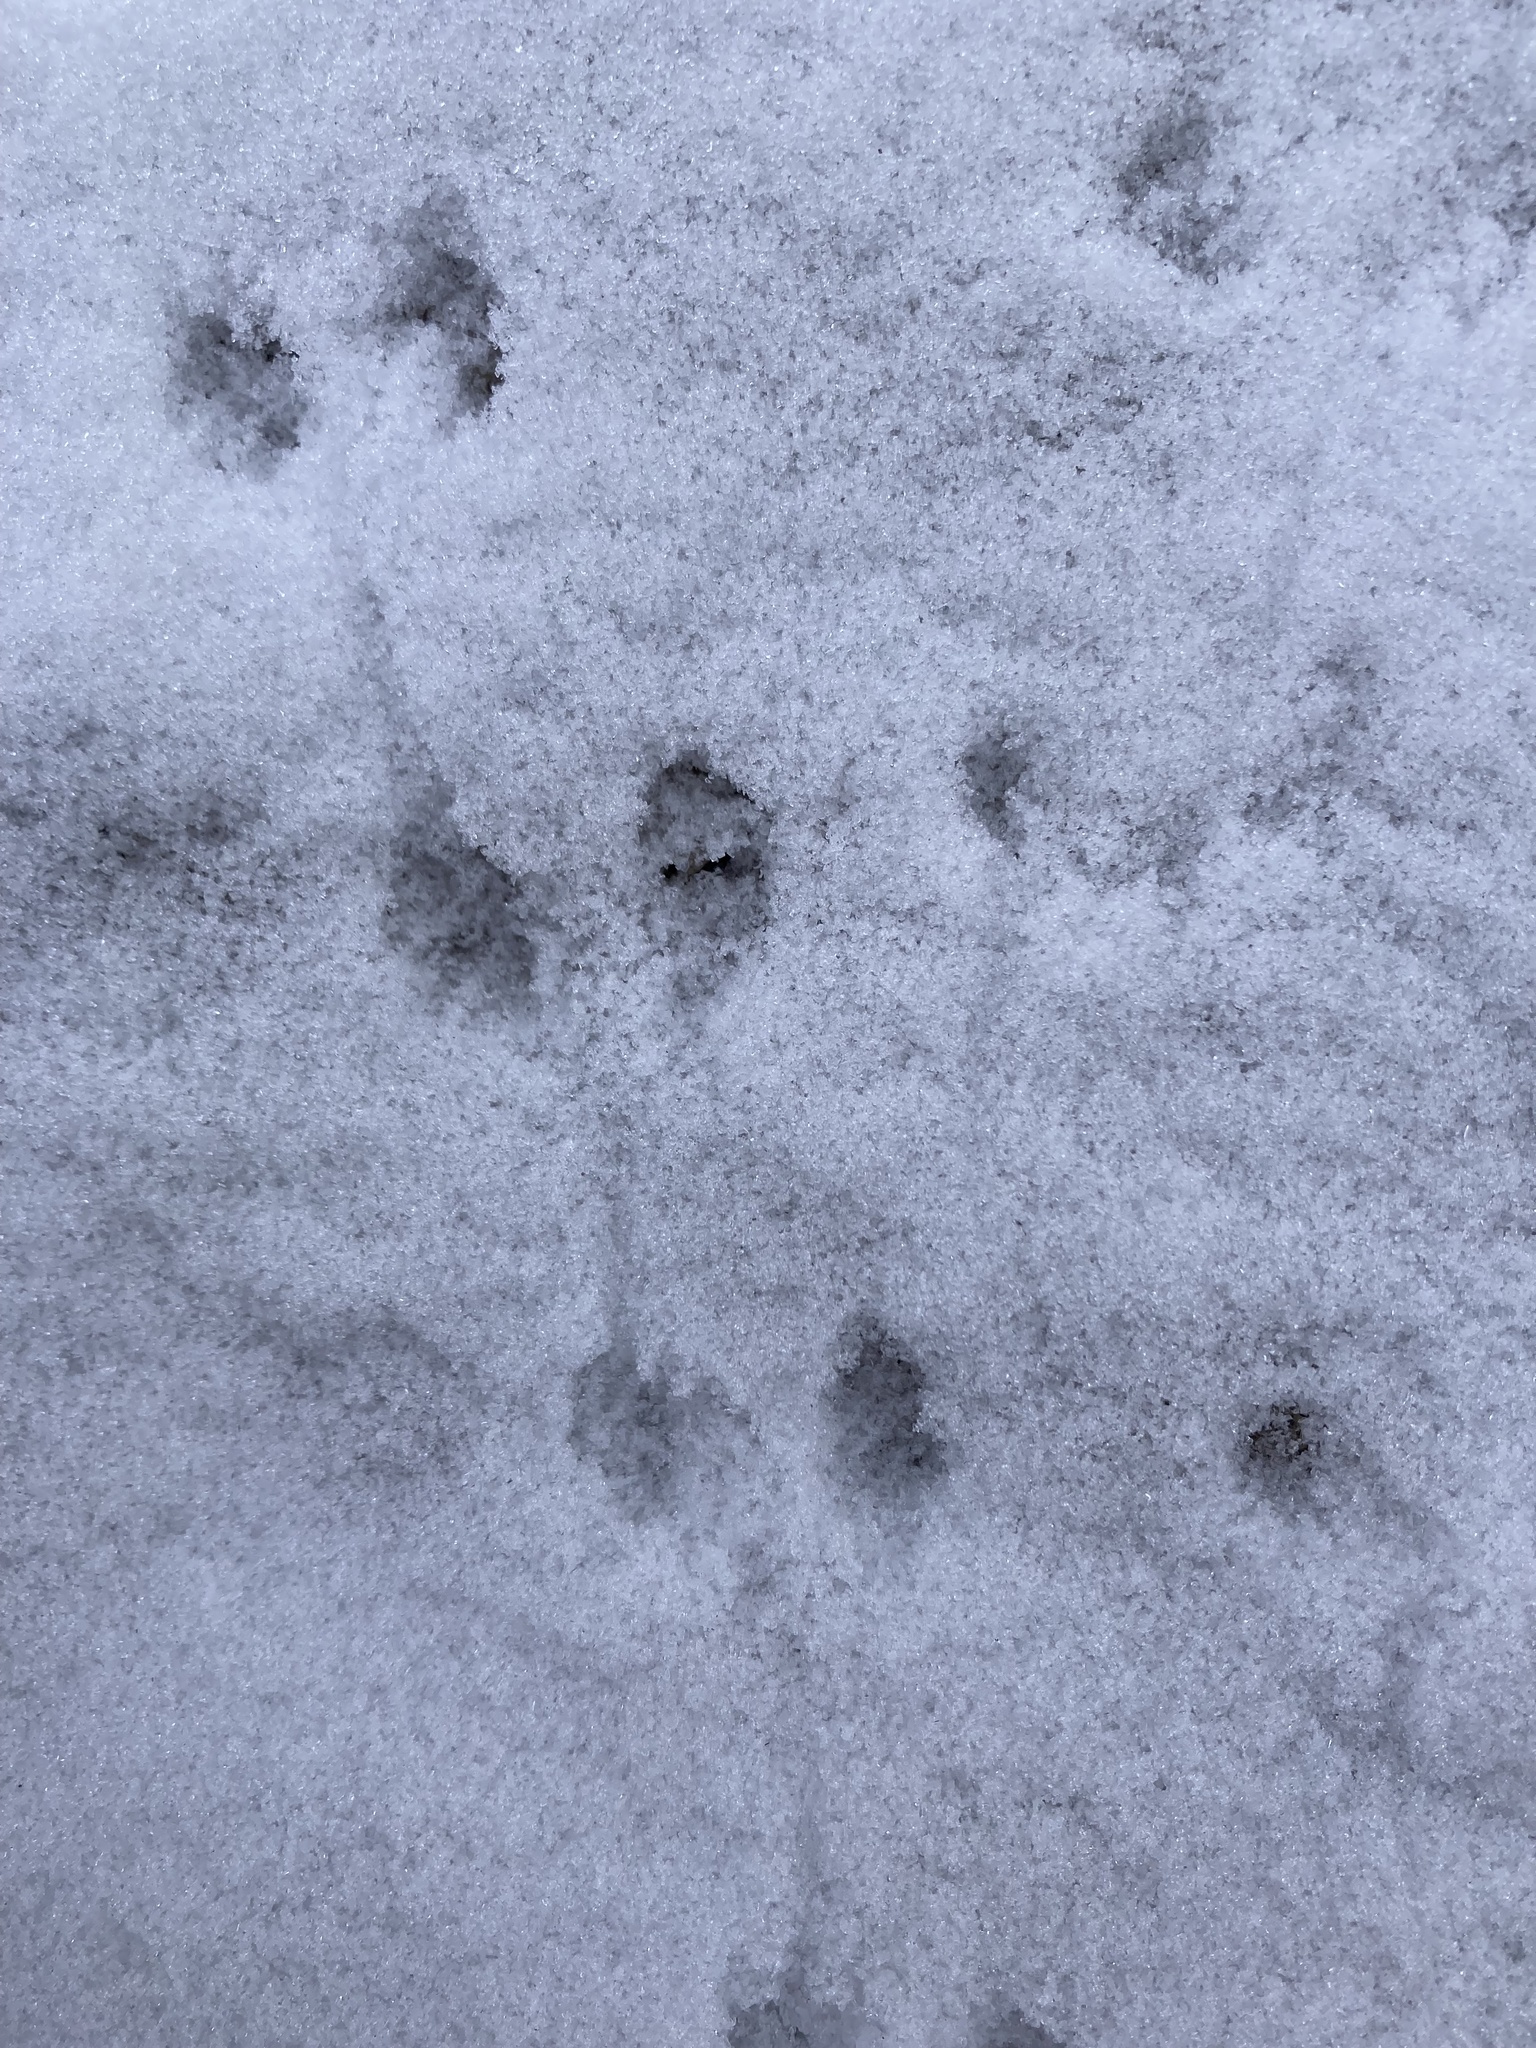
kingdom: Animalia
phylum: Chordata
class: Mammalia
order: Rodentia
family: Cricetidae
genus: Peromyscus
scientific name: Peromyscus maniculatus
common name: Deer mouse
